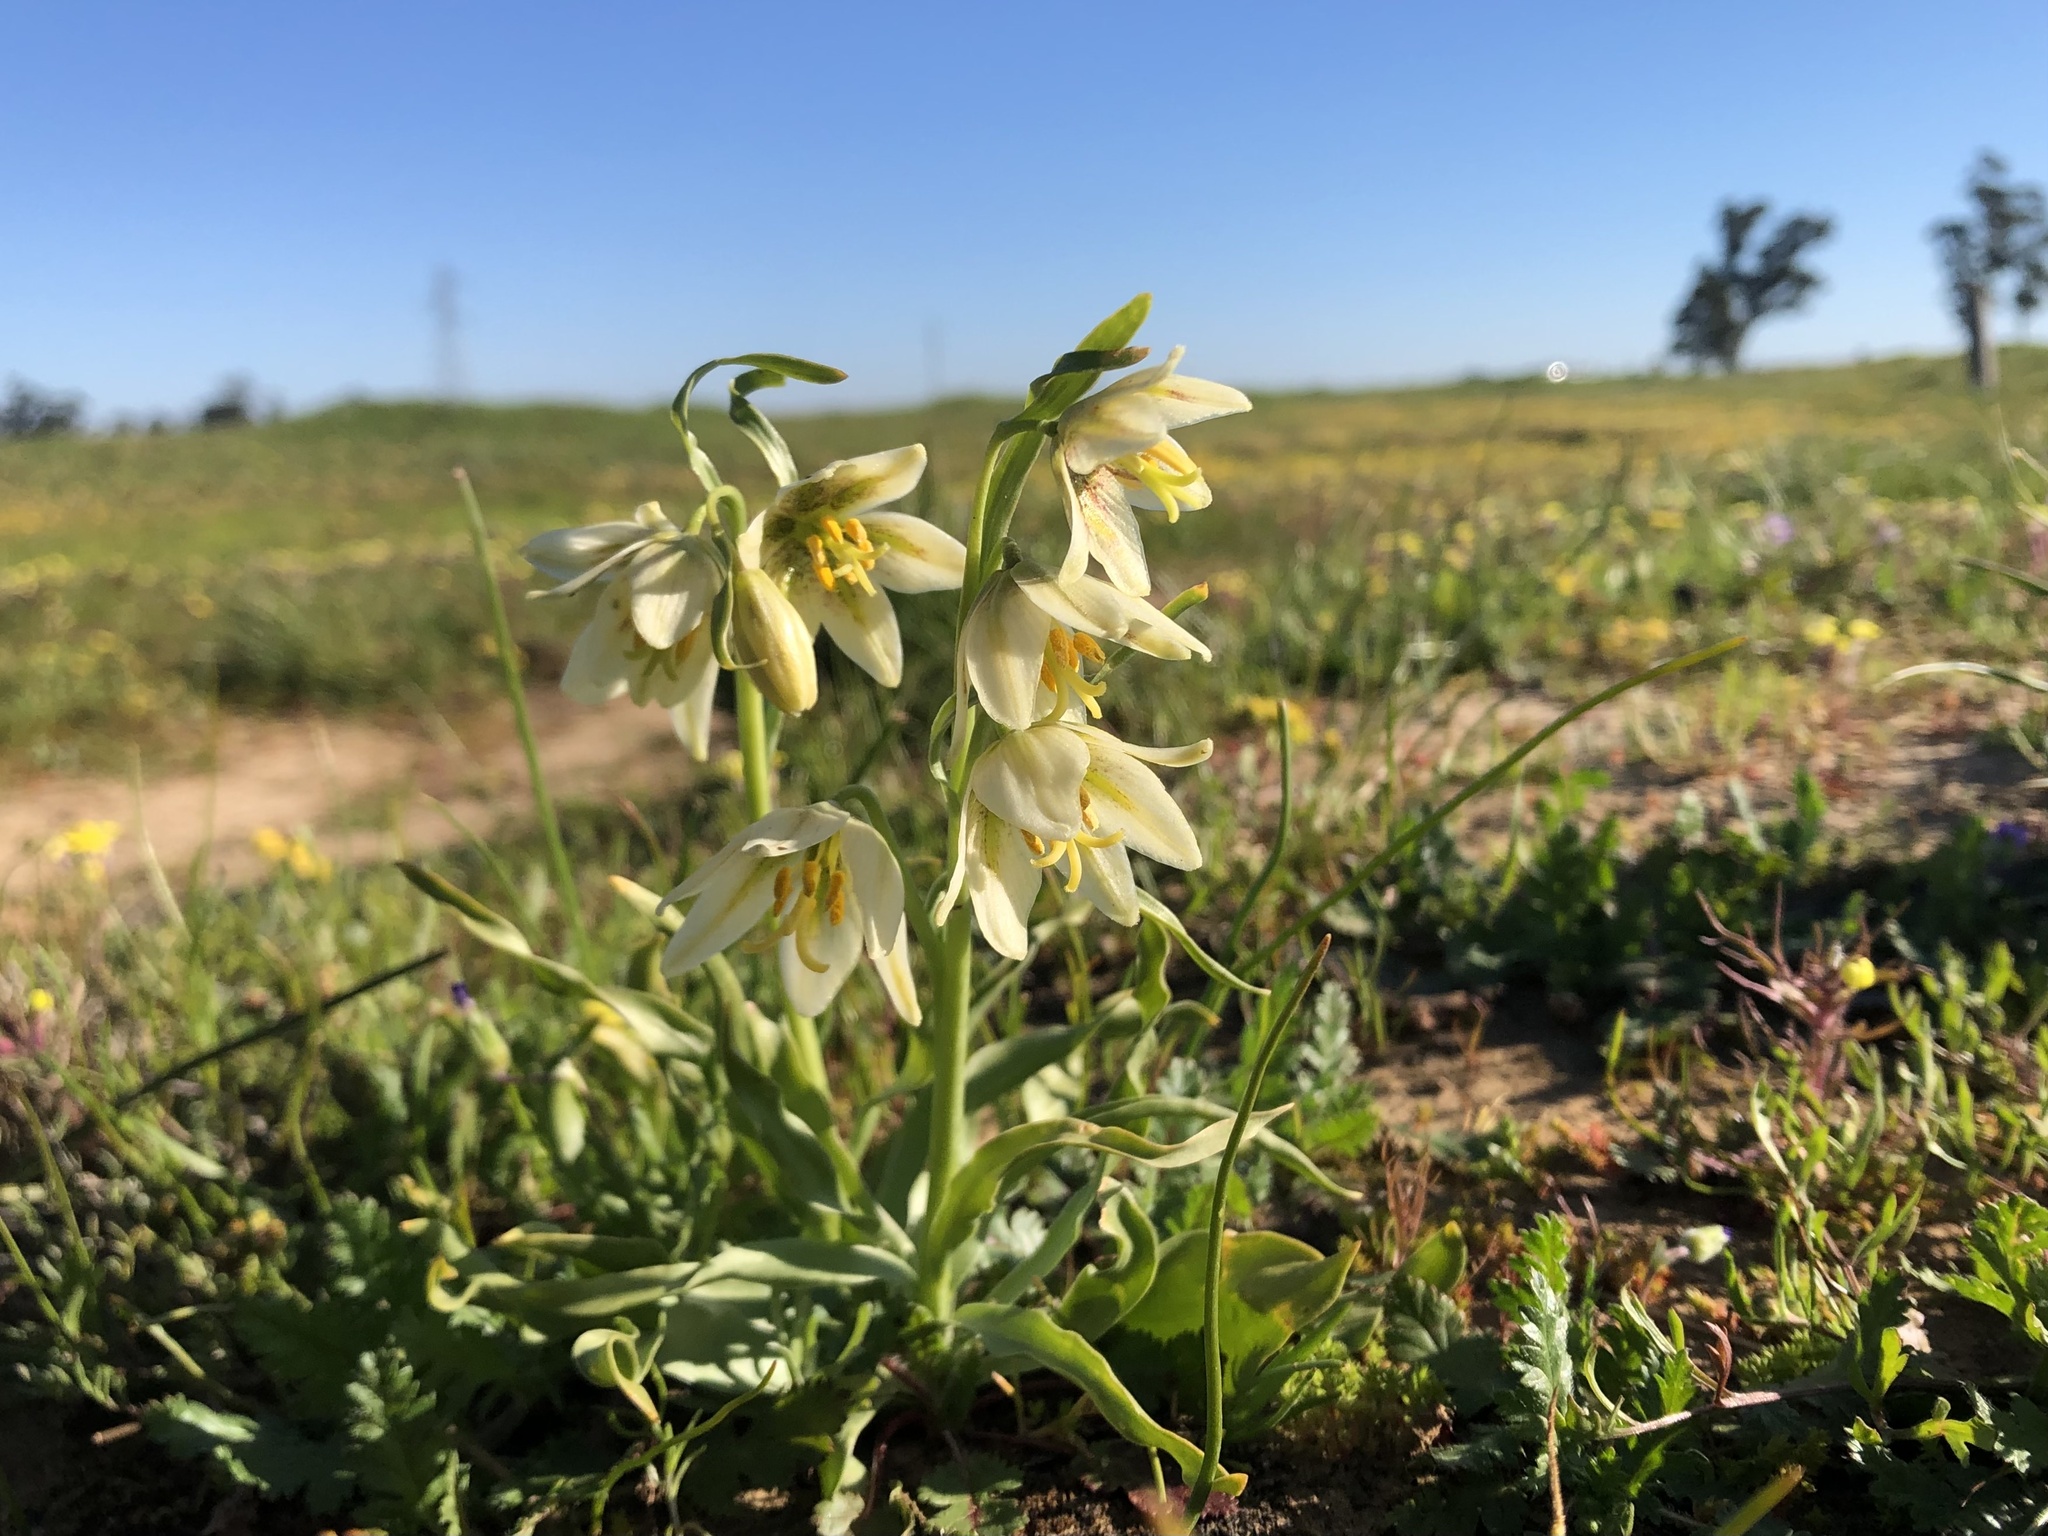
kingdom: Plantae
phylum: Tracheophyta
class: Liliopsida
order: Liliales
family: Liliaceae
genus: Fritillaria
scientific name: Fritillaria liliacea
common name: Fragrant fritillary
